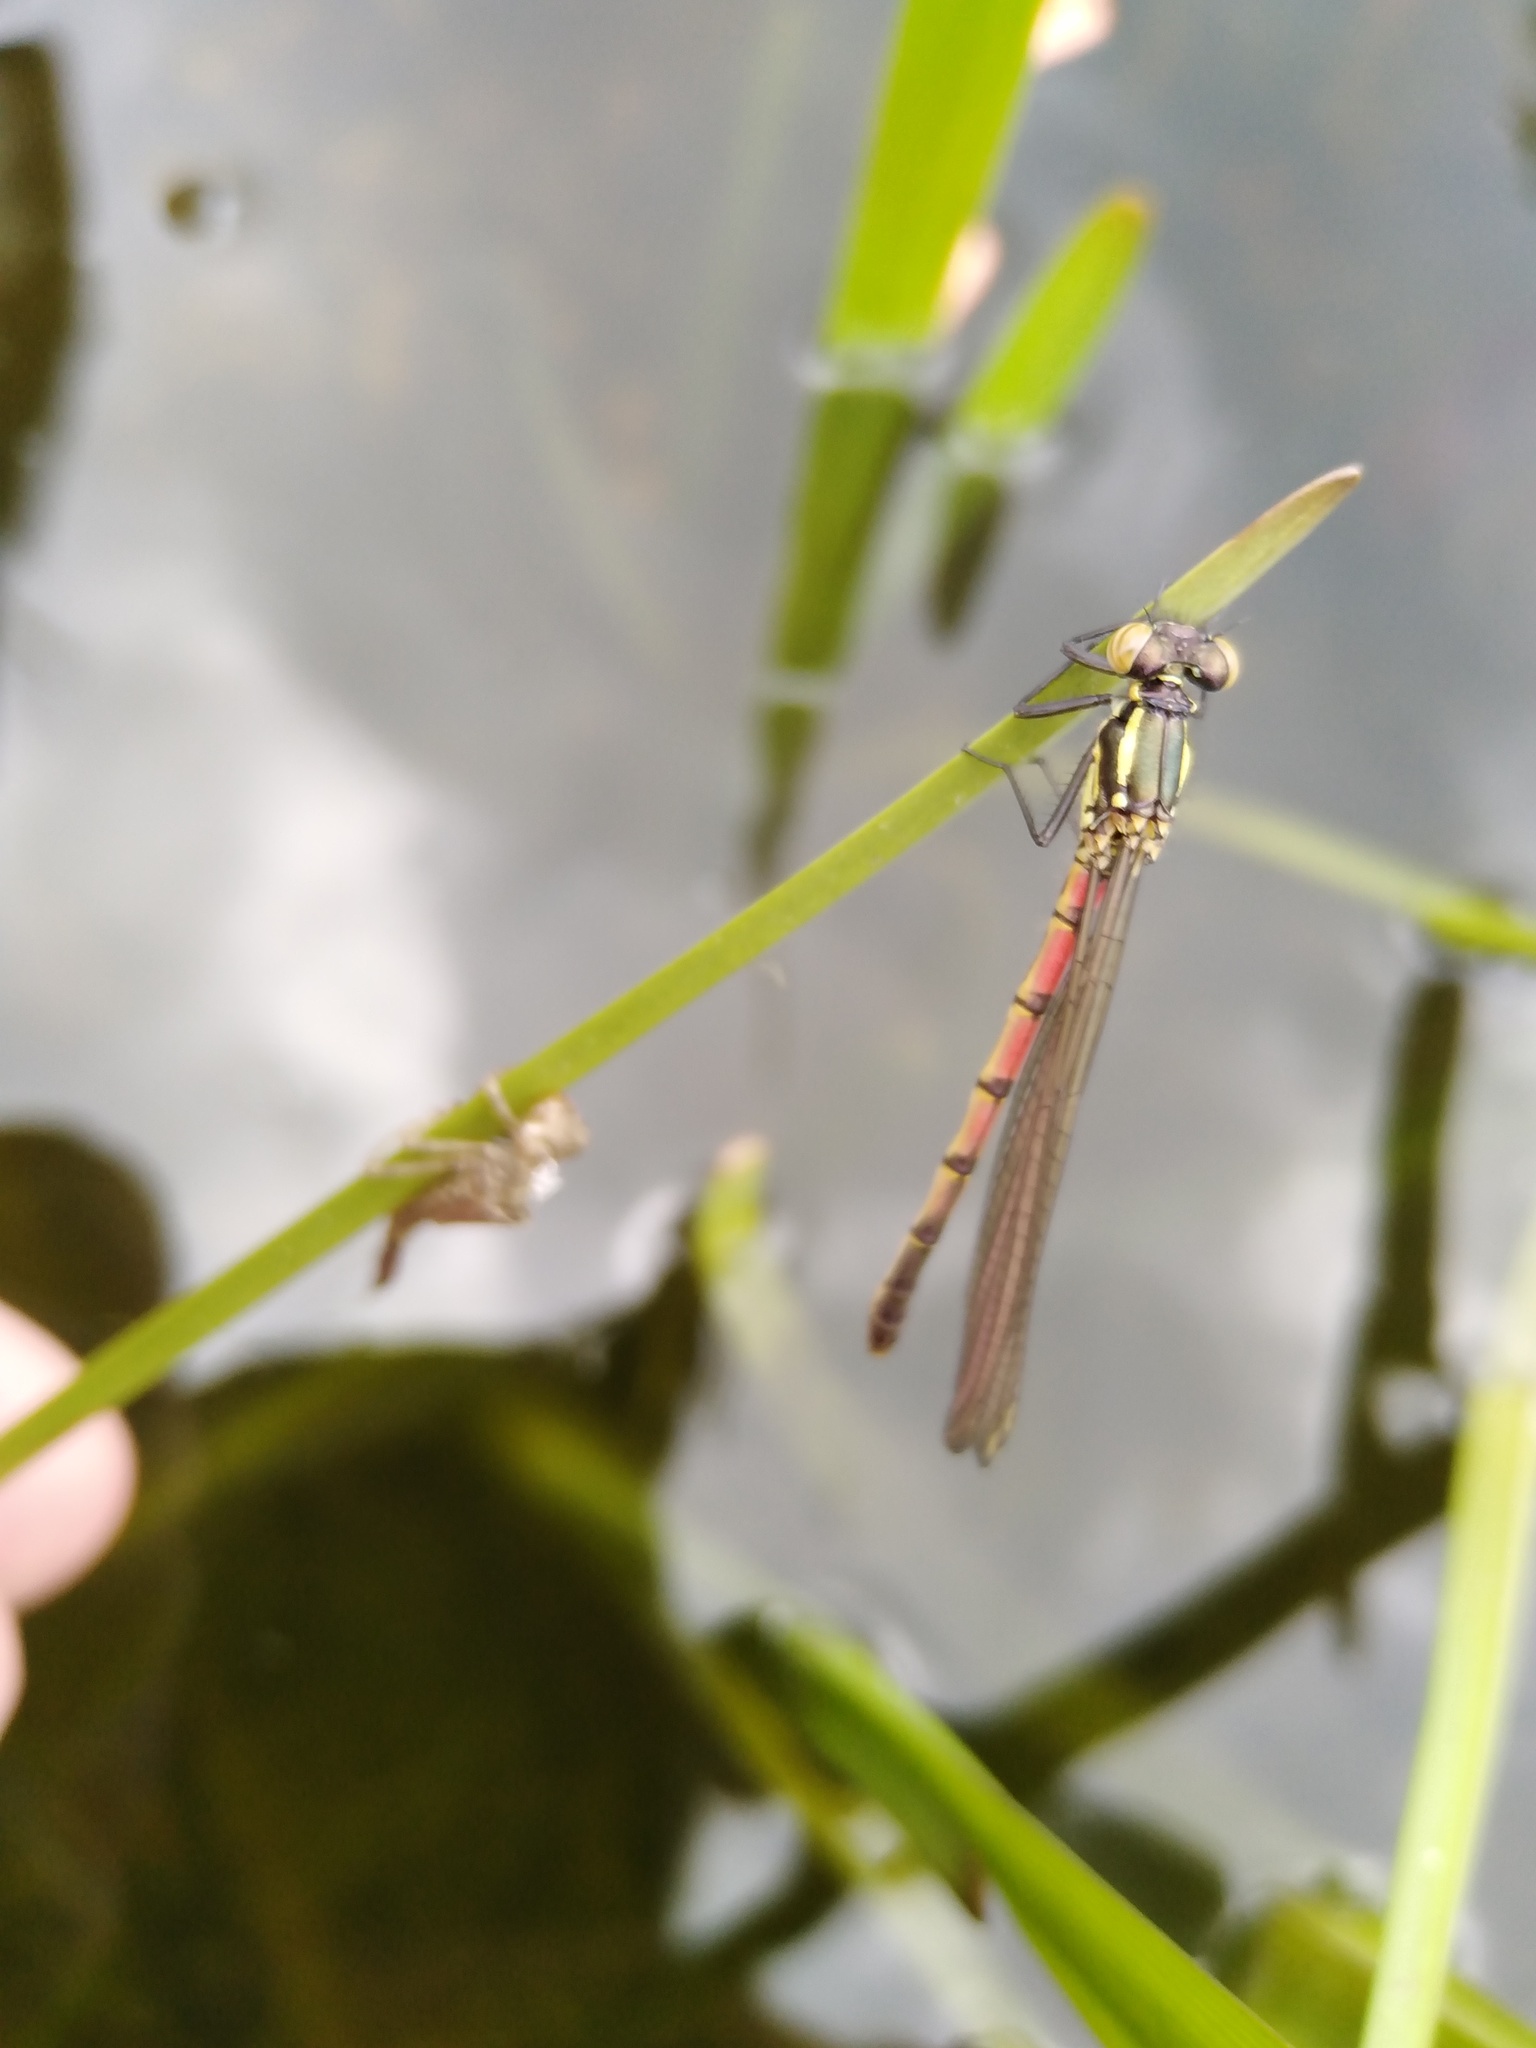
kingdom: Animalia
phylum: Arthropoda
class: Insecta
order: Odonata
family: Coenagrionidae
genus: Pyrrhosoma
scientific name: Pyrrhosoma nymphula
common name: Large red damsel
